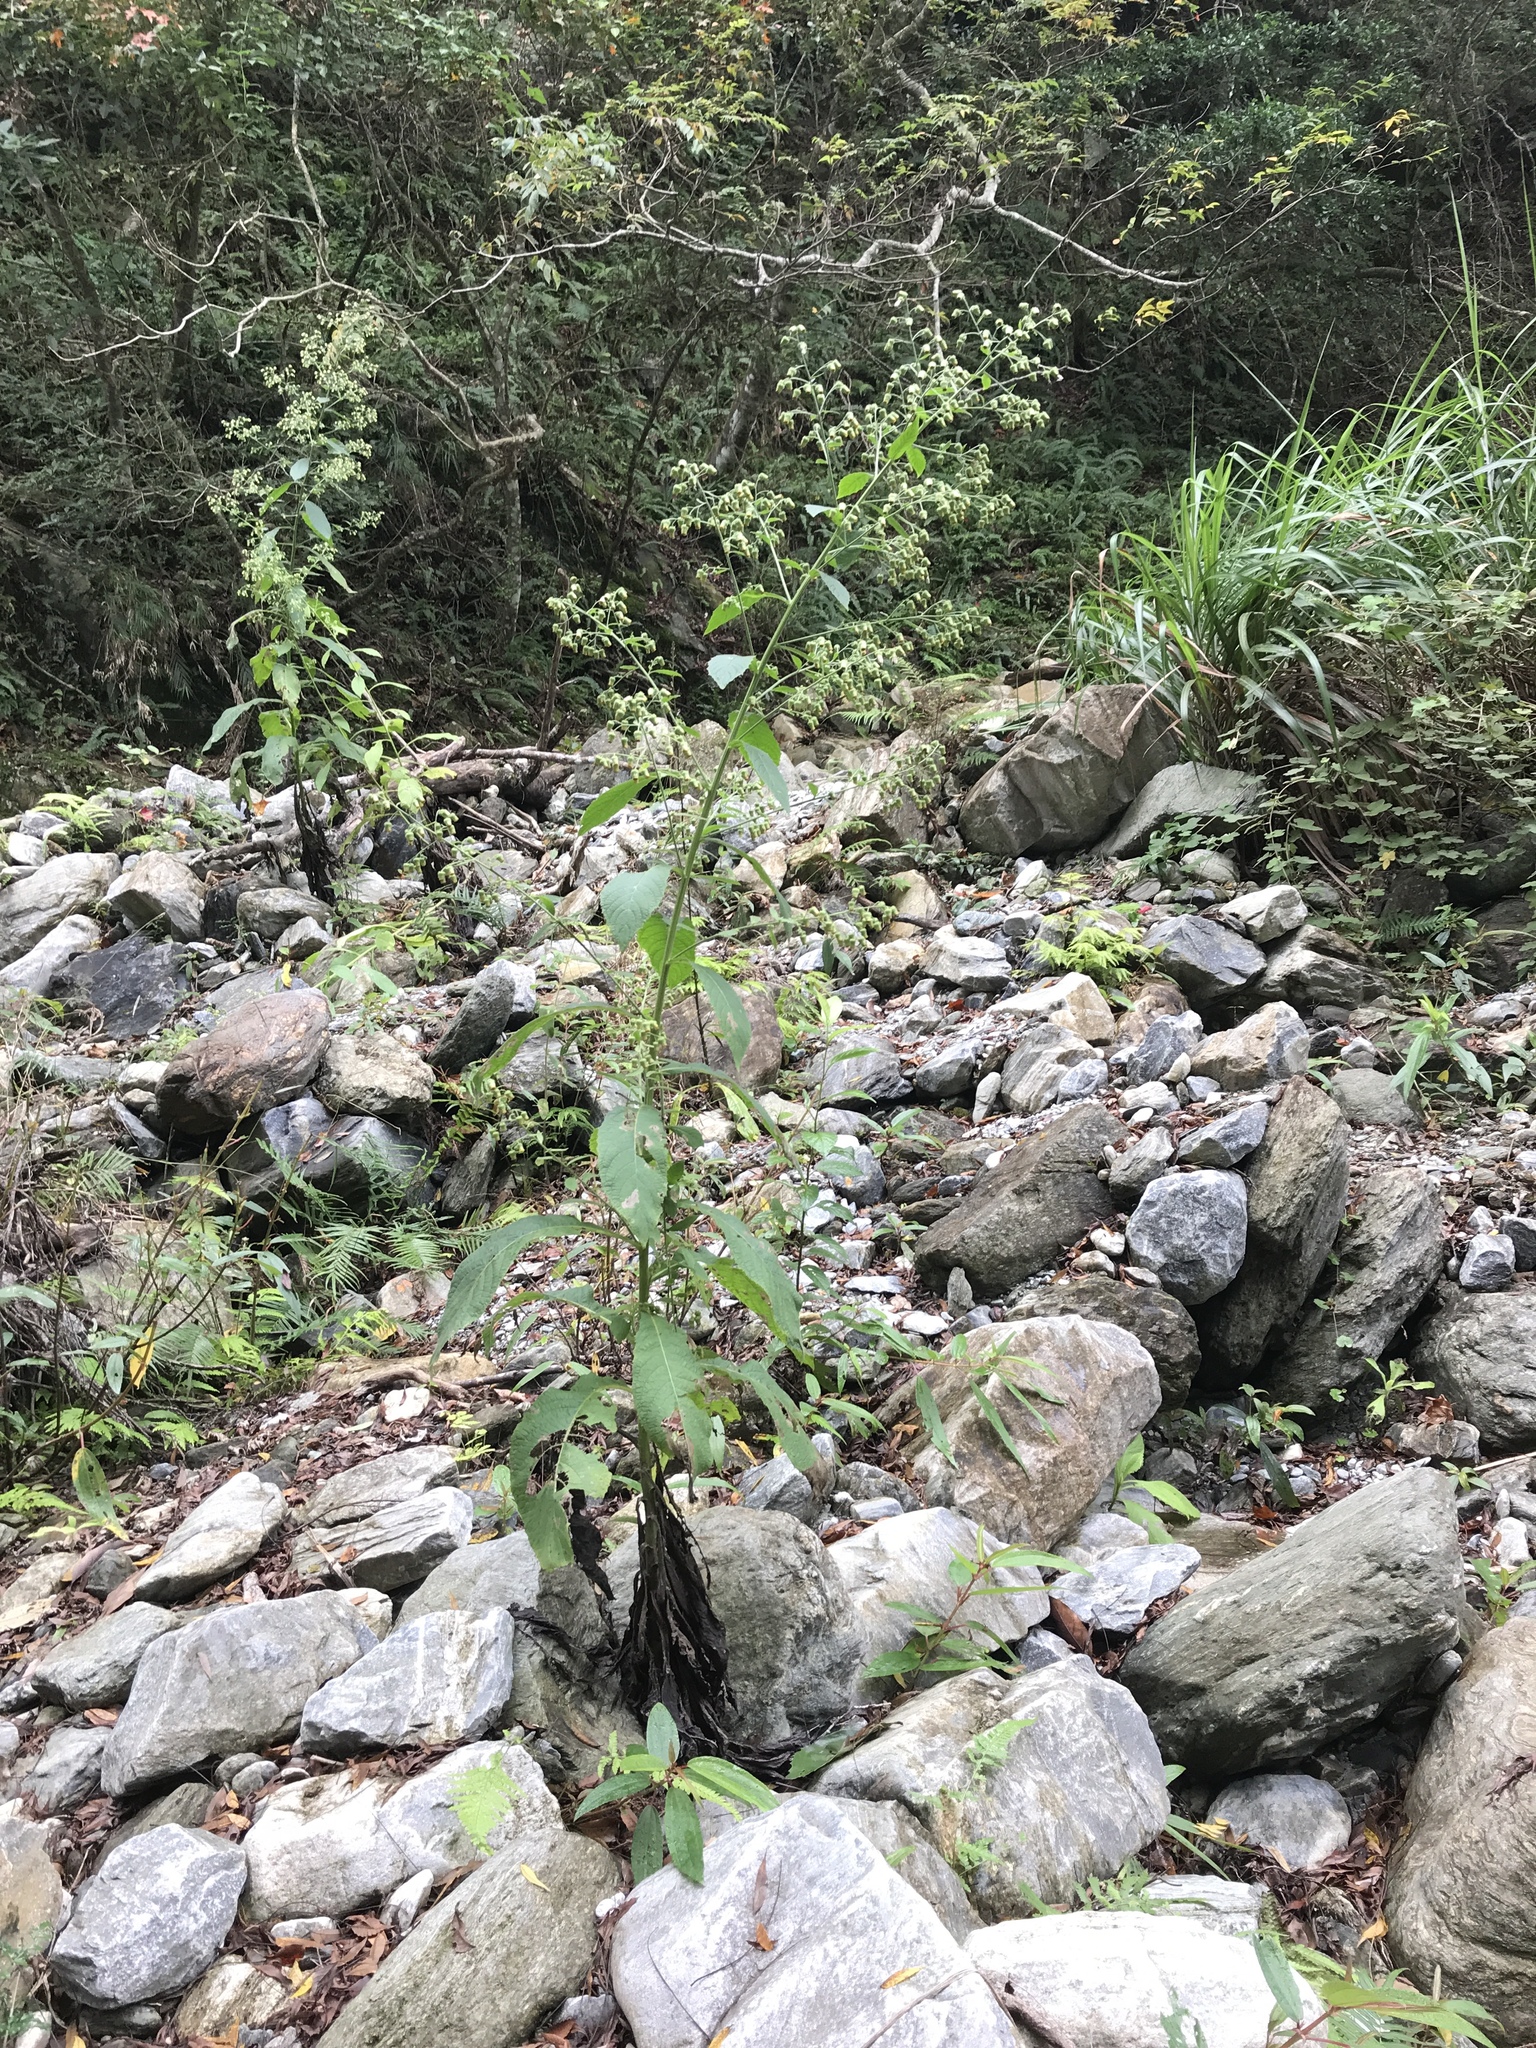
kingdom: Plantae
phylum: Tracheophyta
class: Magnoliopsida
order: Asterales
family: Asteraceae
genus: Blumea
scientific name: Blumea aromatica
